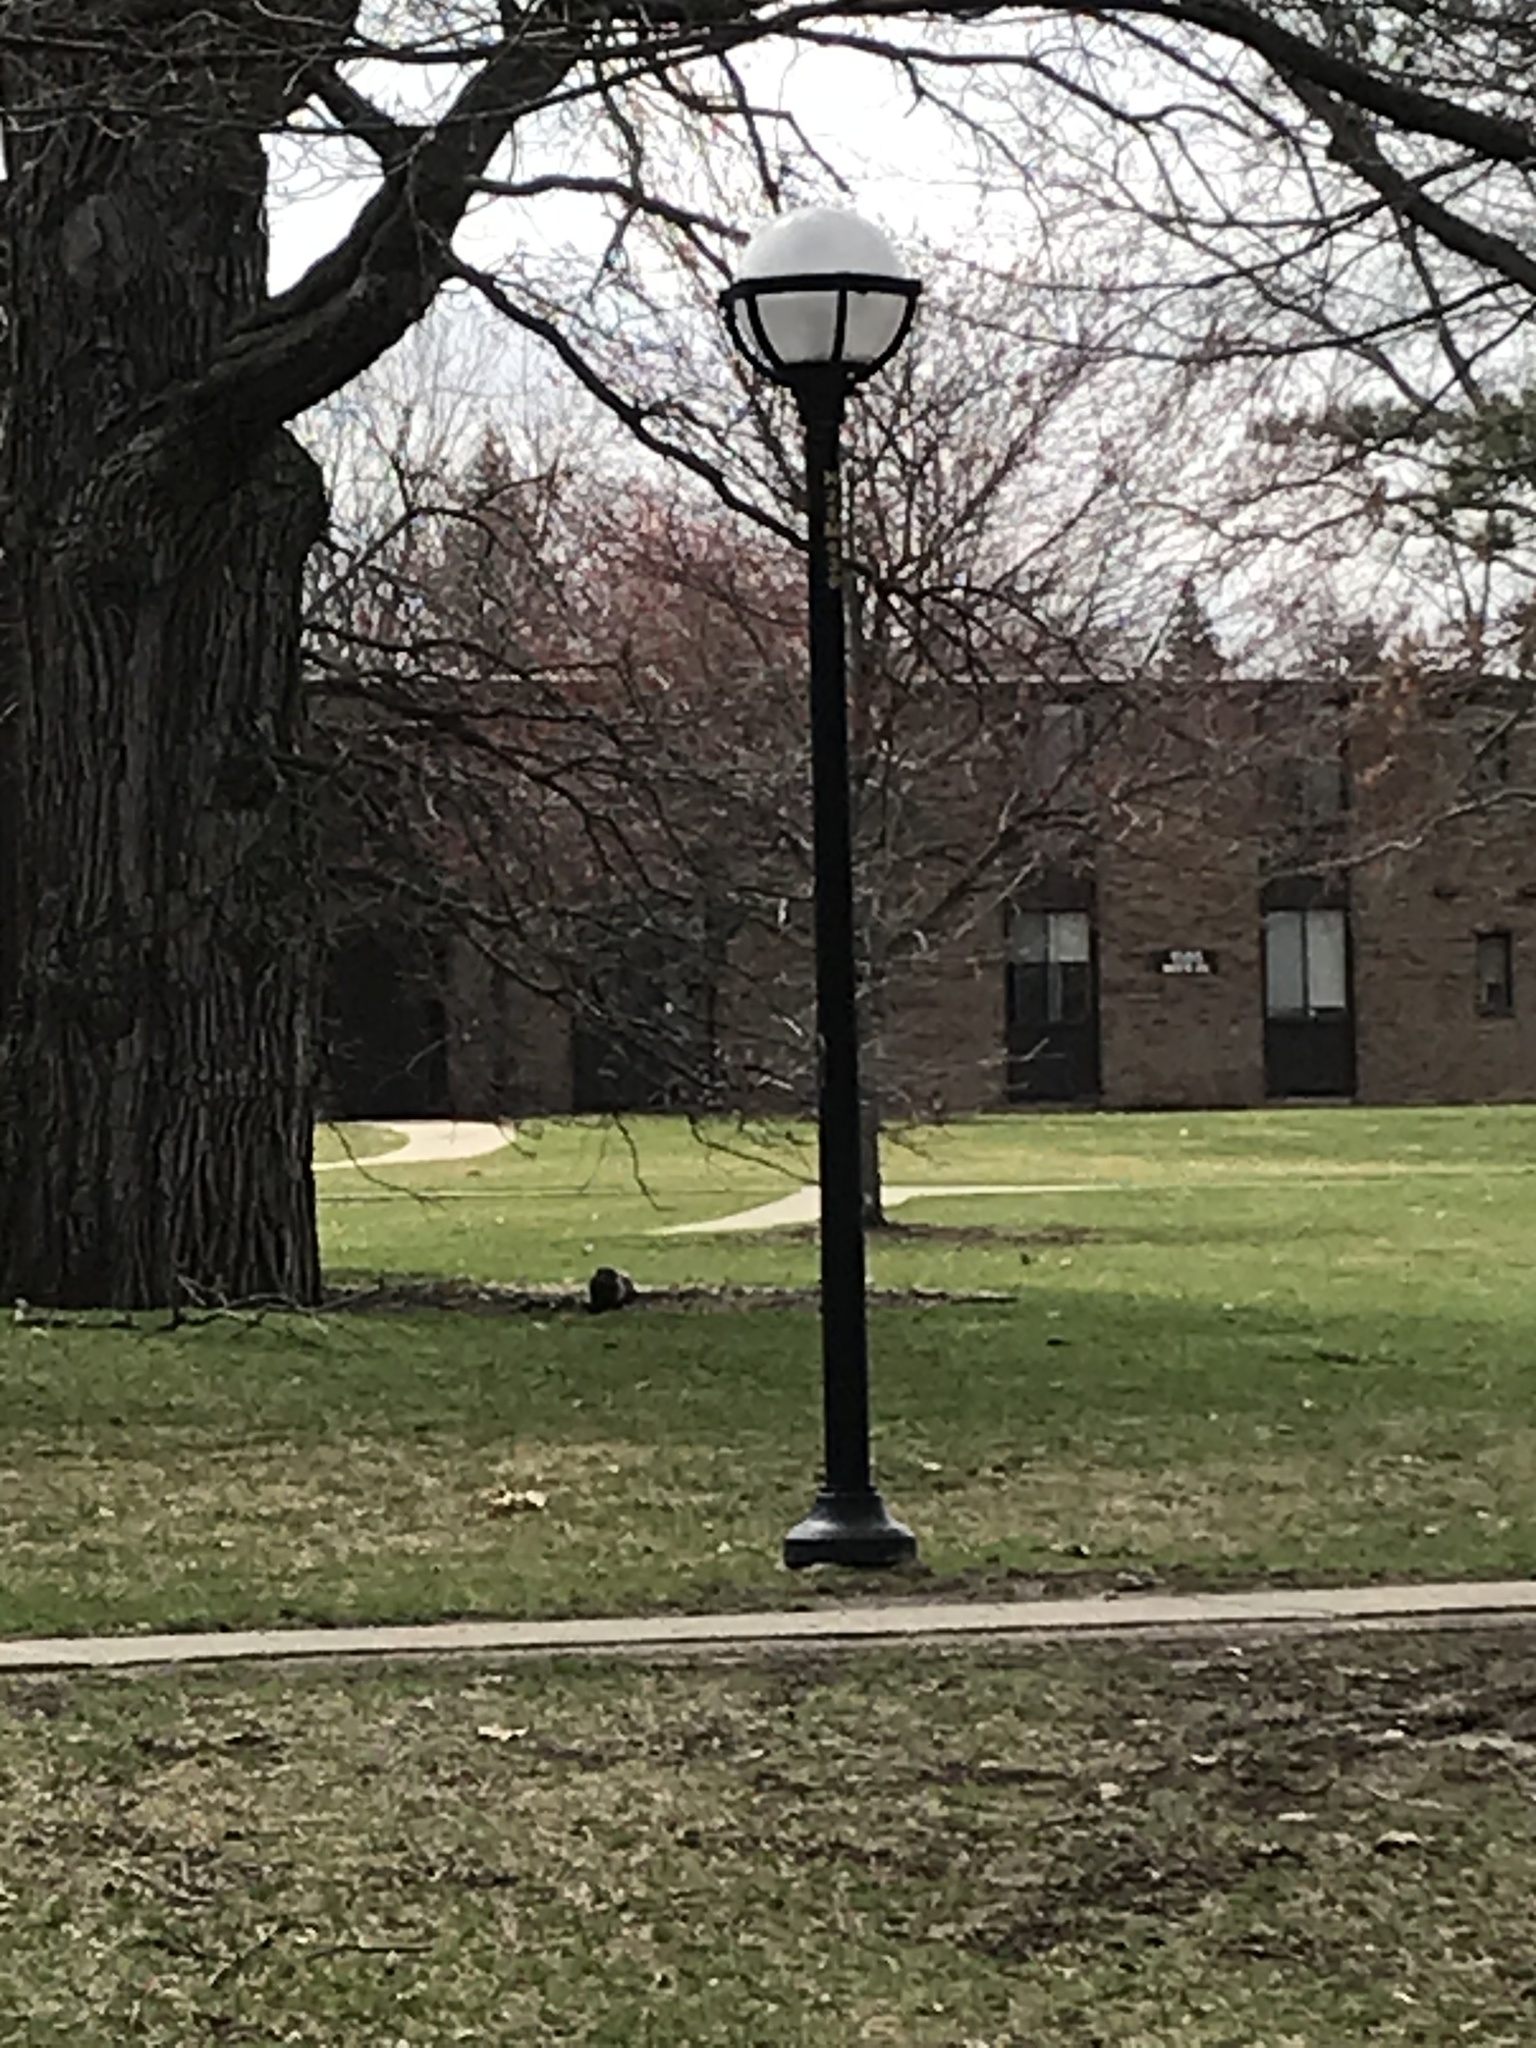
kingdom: Animalia
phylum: Chordata
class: Mammalia
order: Rodentia
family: Sciuridae
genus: Marmota
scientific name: Marmota monax
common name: Groundhog
